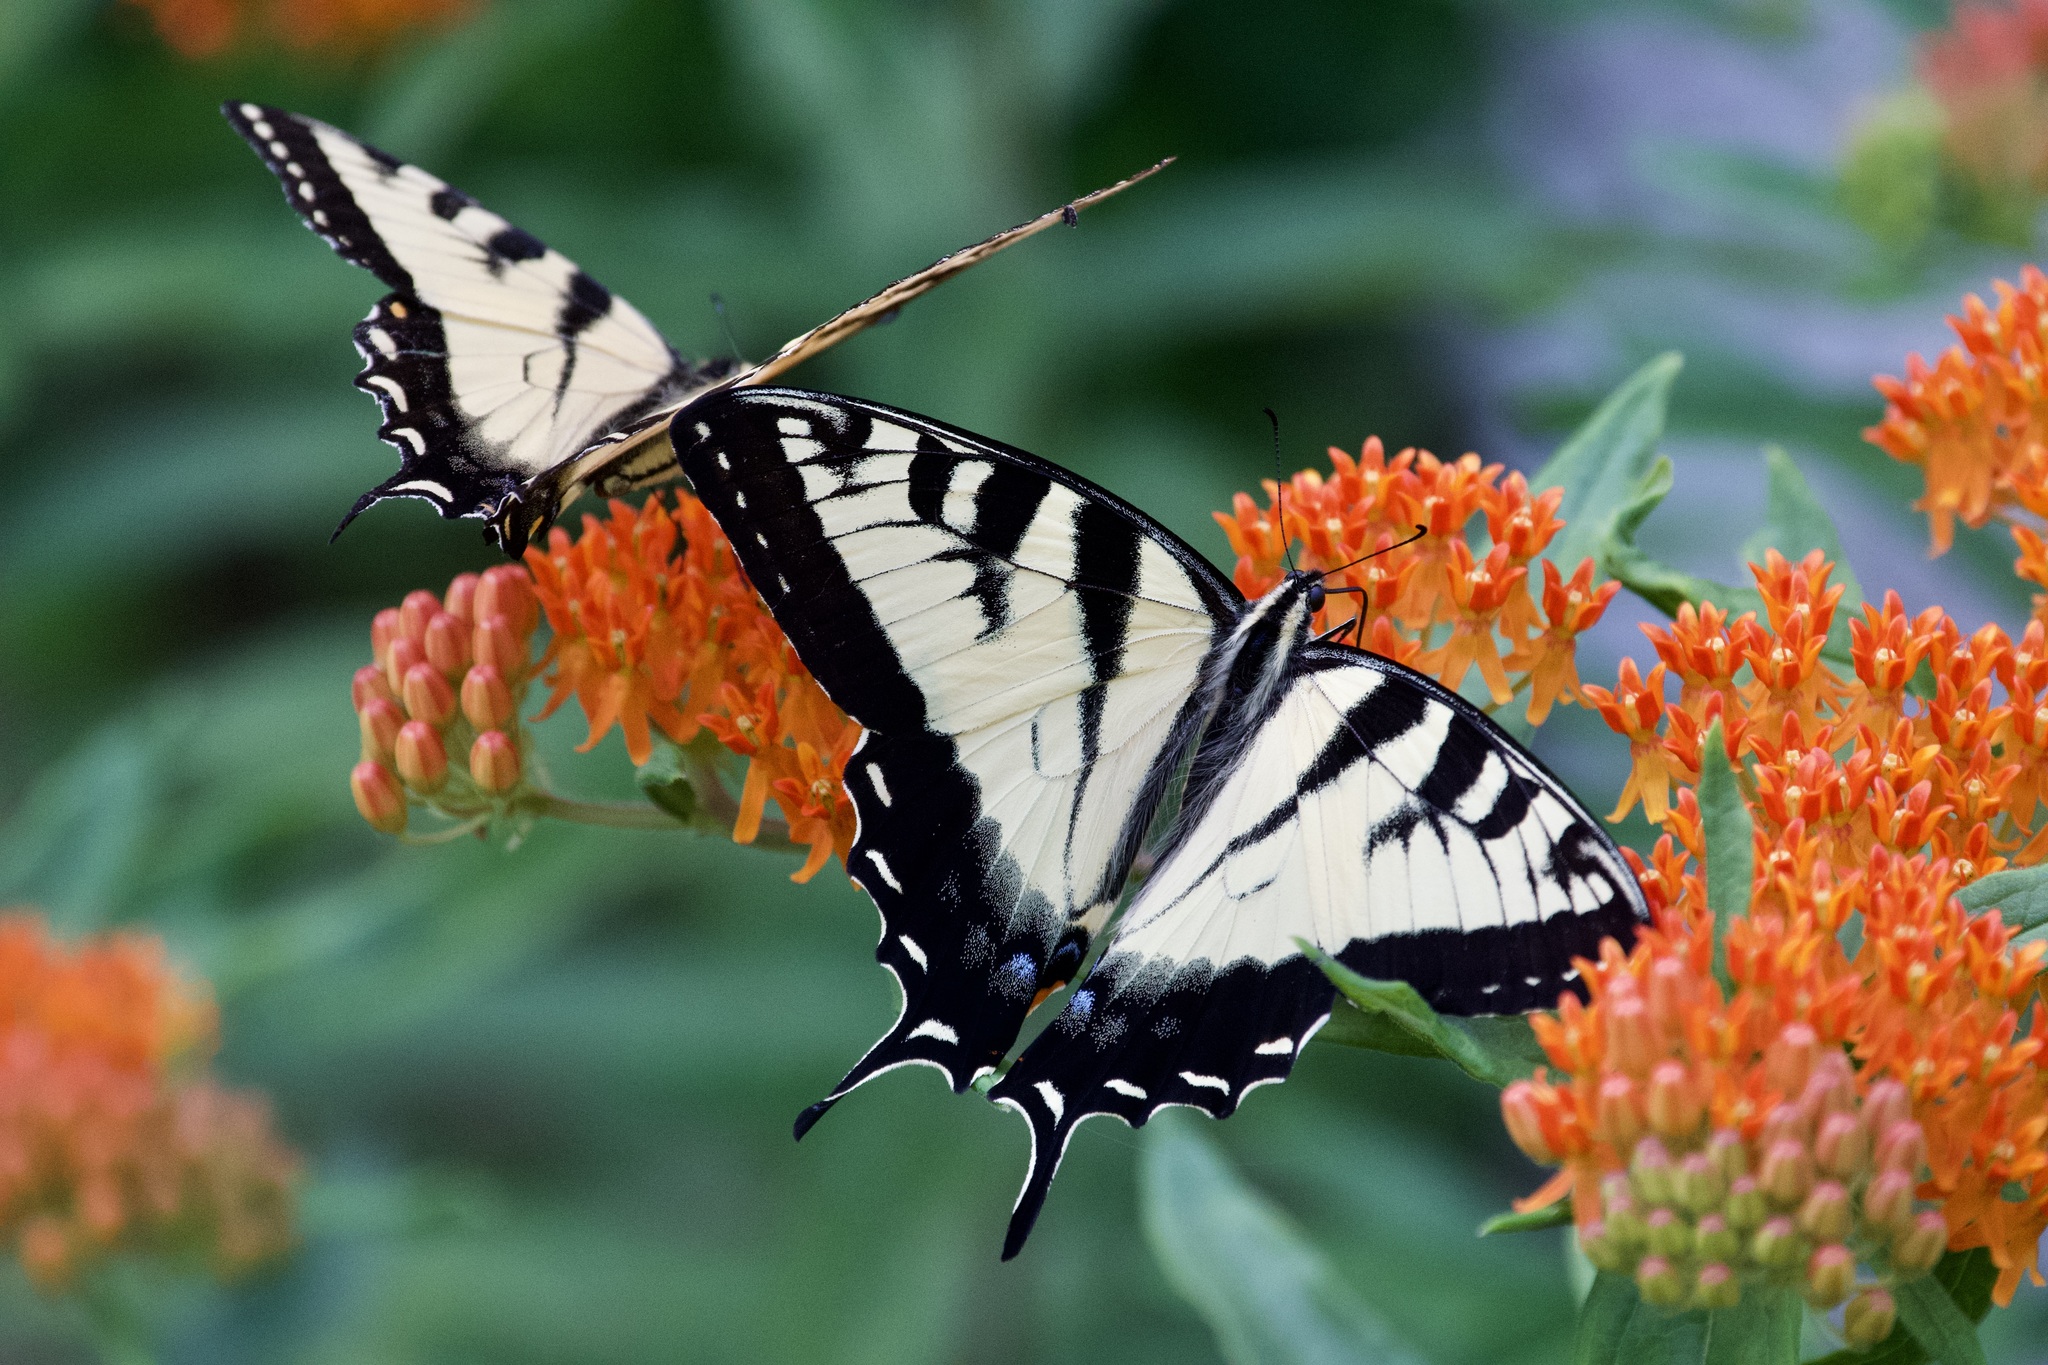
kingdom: Animalia
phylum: Arthropoda
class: Insecta
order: Lepidoptera
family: Papilionidae
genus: Papilio
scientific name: Papilio
